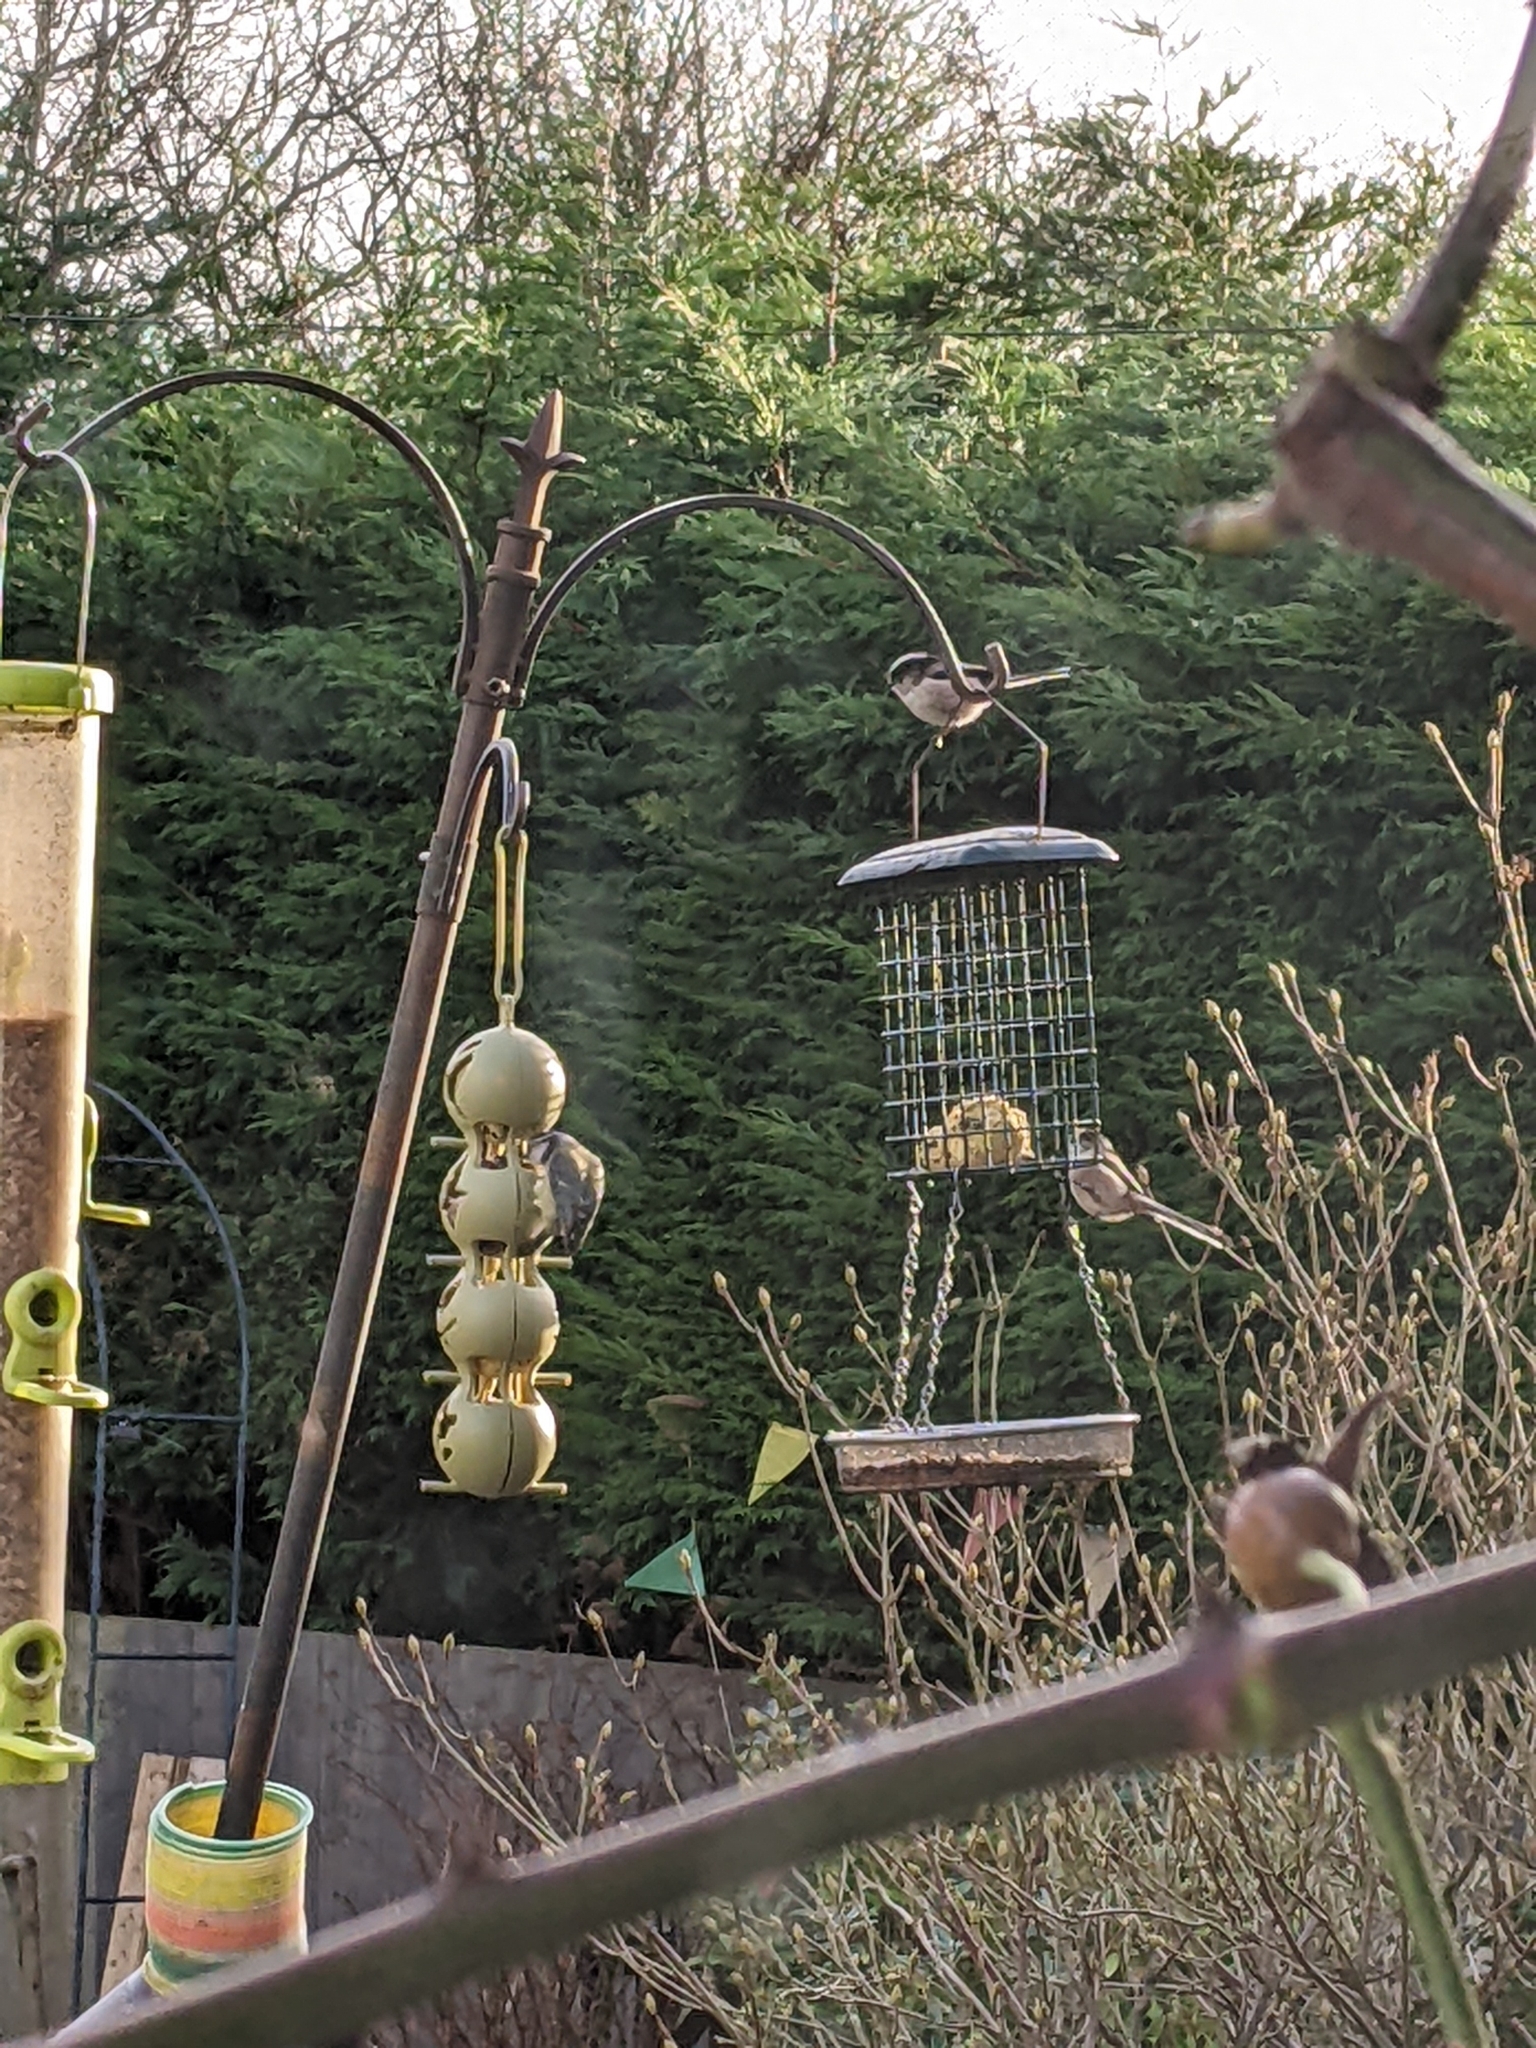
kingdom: Animalia
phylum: Chordata
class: Aves
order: Passeriformes
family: Aegithalidae
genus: Aegithalos
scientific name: Aegithalos caudatus
